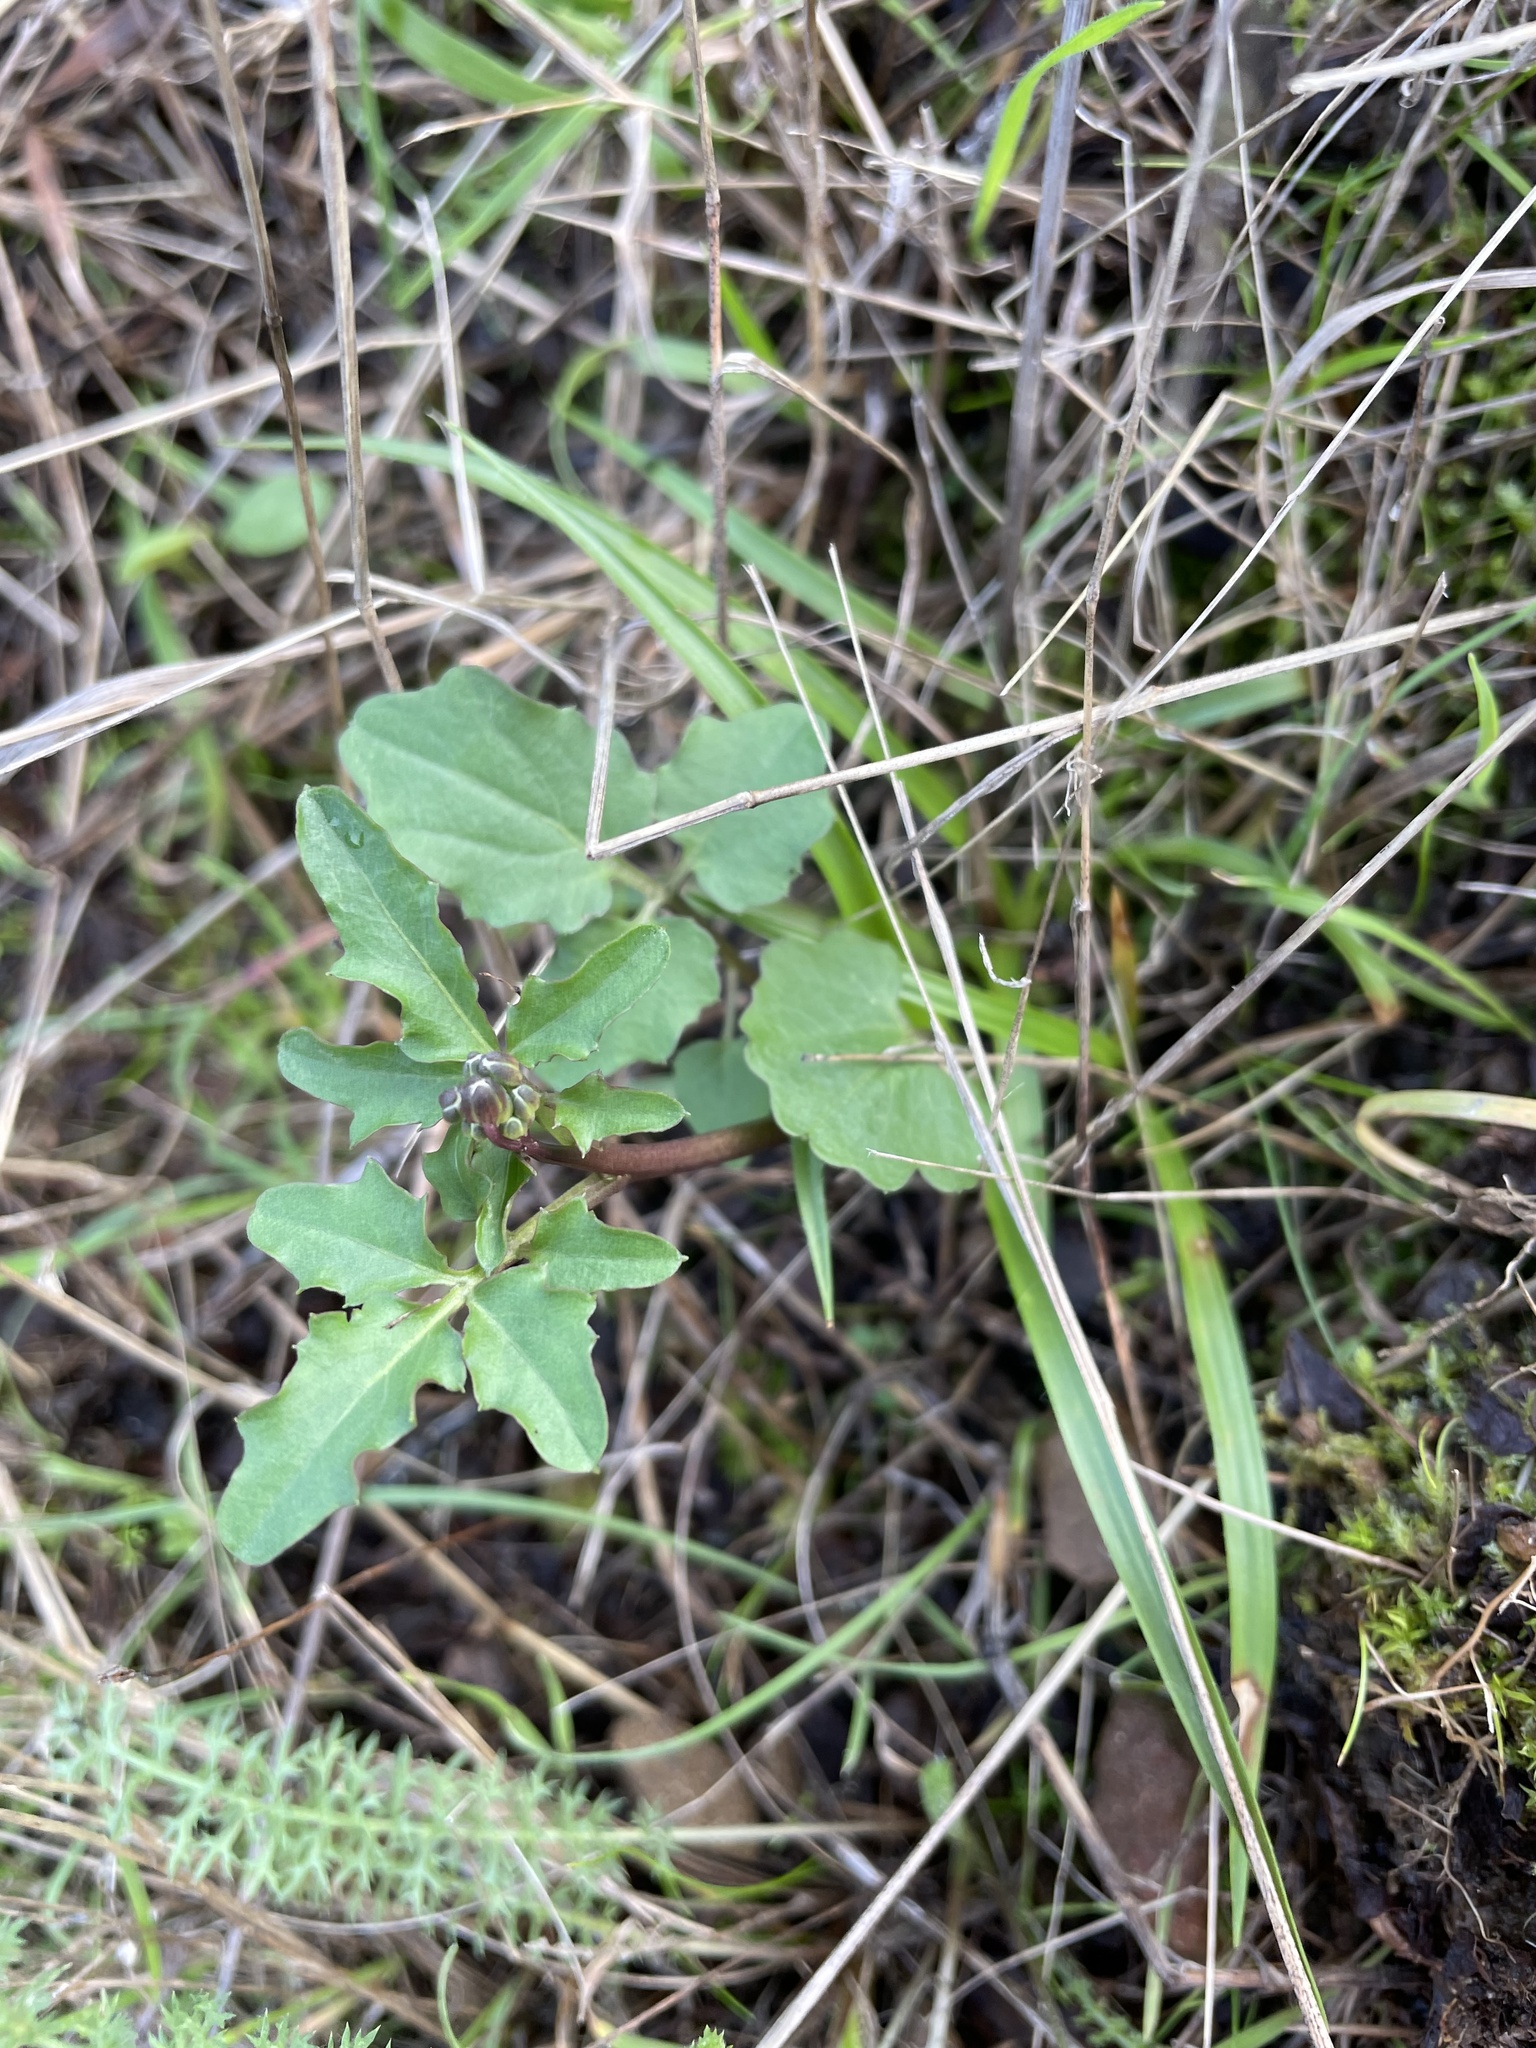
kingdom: Plantae
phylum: Tracheophyta
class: Magnoliopsida
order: Brassicales
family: Brassicaceae
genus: Cardamine
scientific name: Cardamine californica
